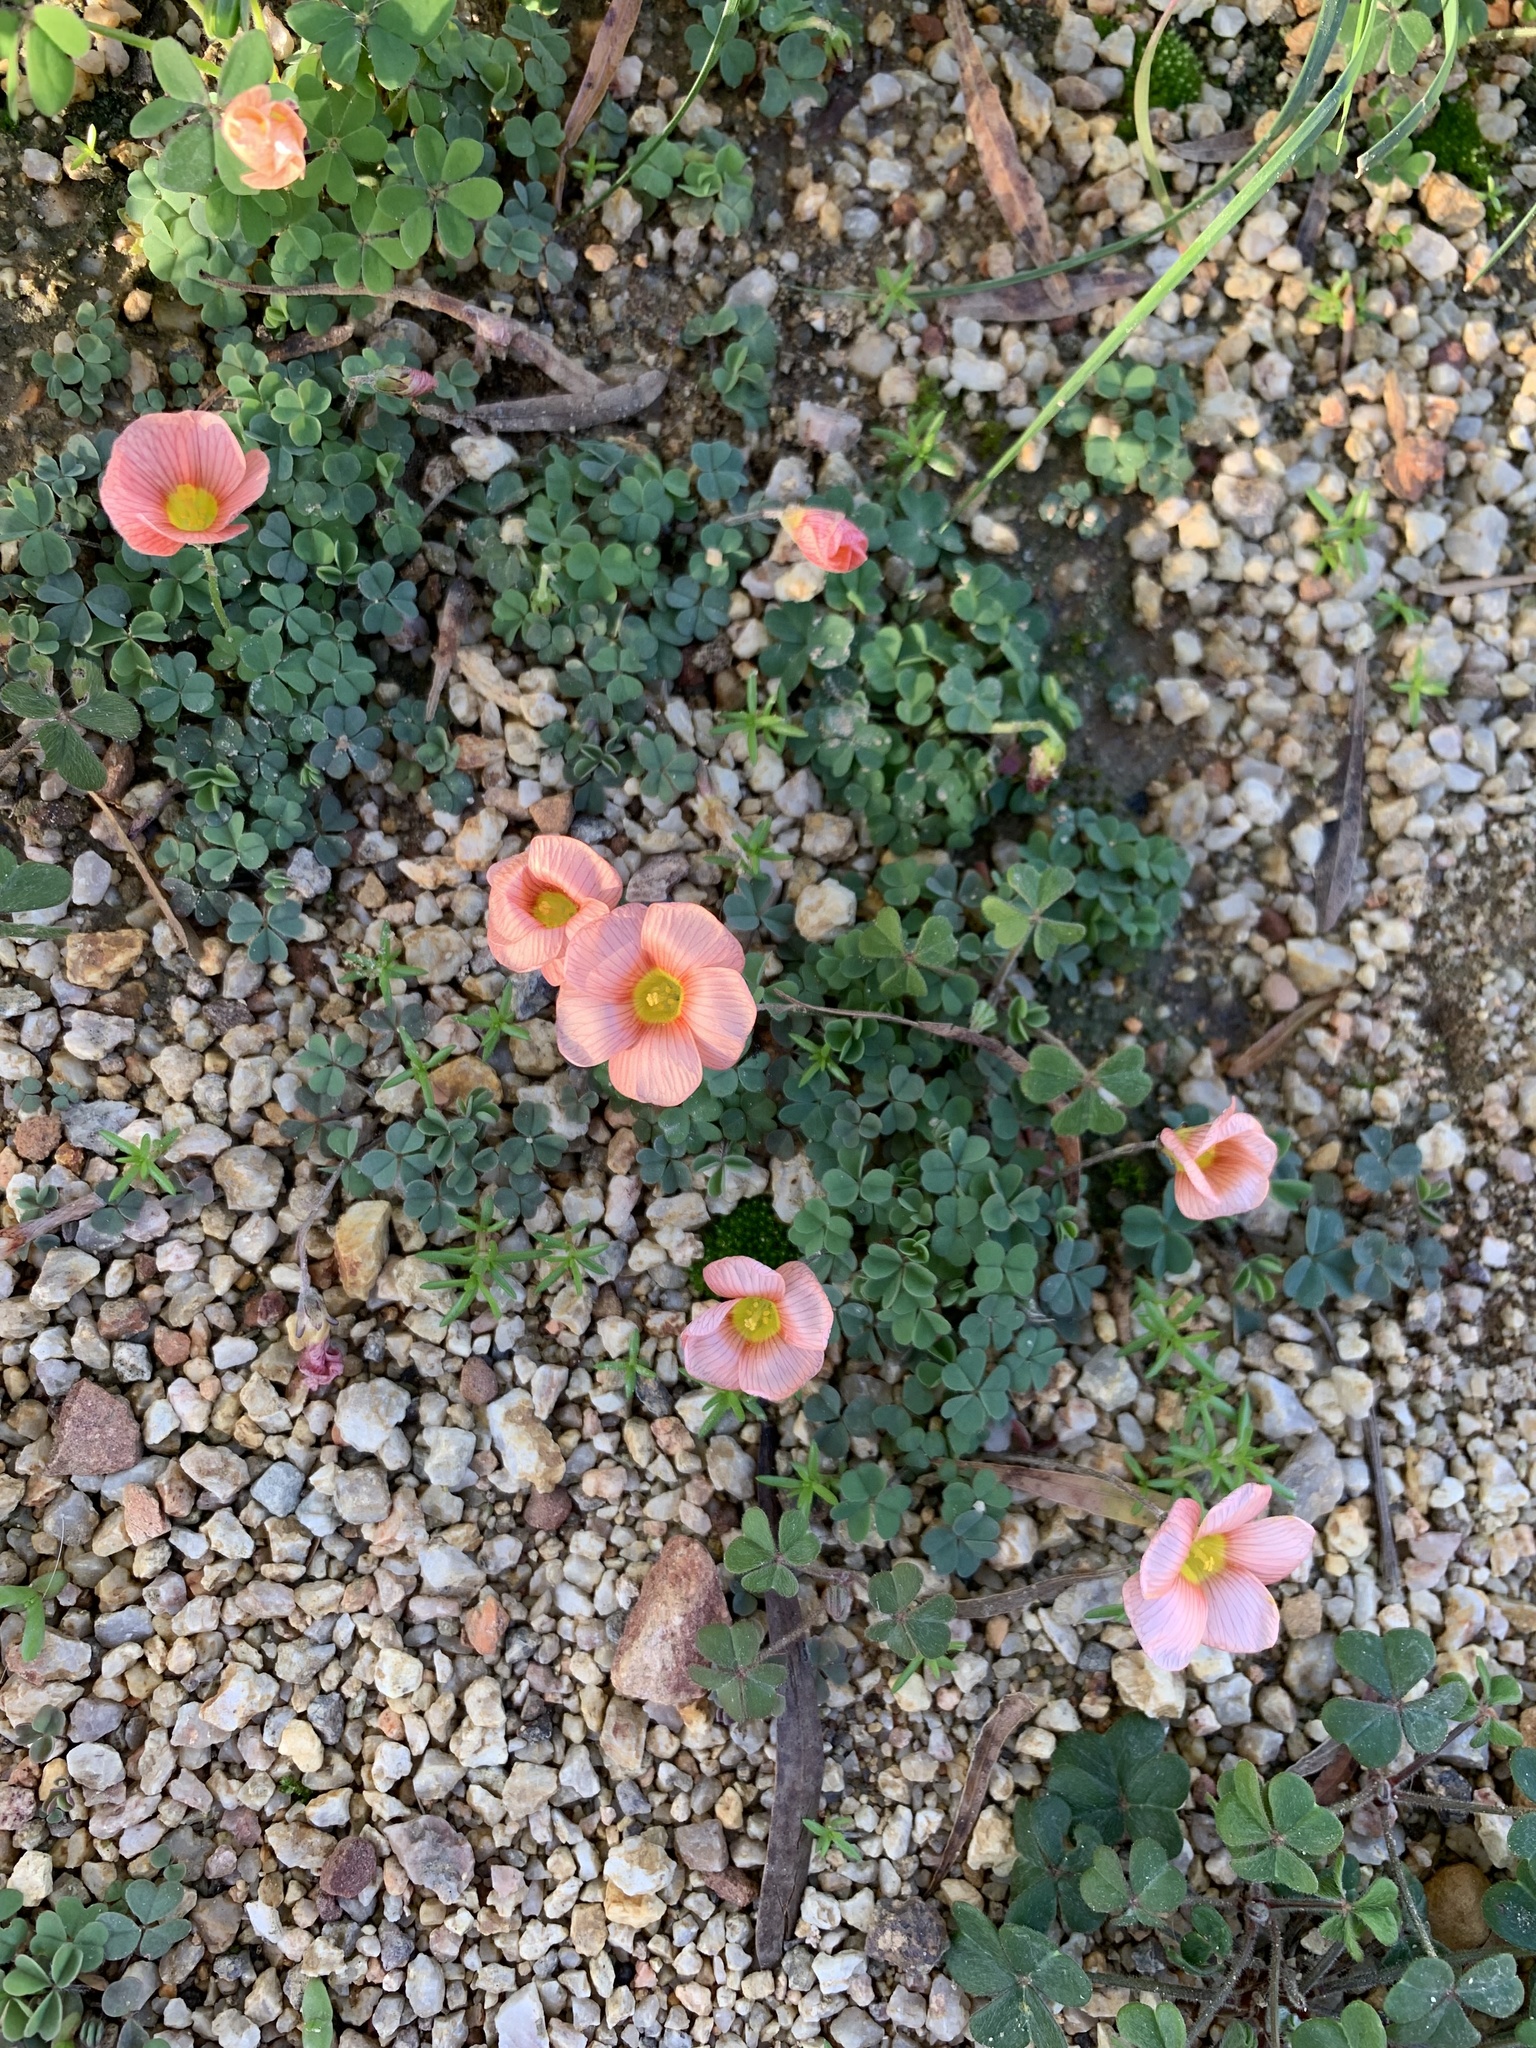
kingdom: Plantae
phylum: Tracheophyta
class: Magnoliopsida
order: Oxalidales
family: Oxalidaceae
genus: Oxalis
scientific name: Oxalis obtusa
